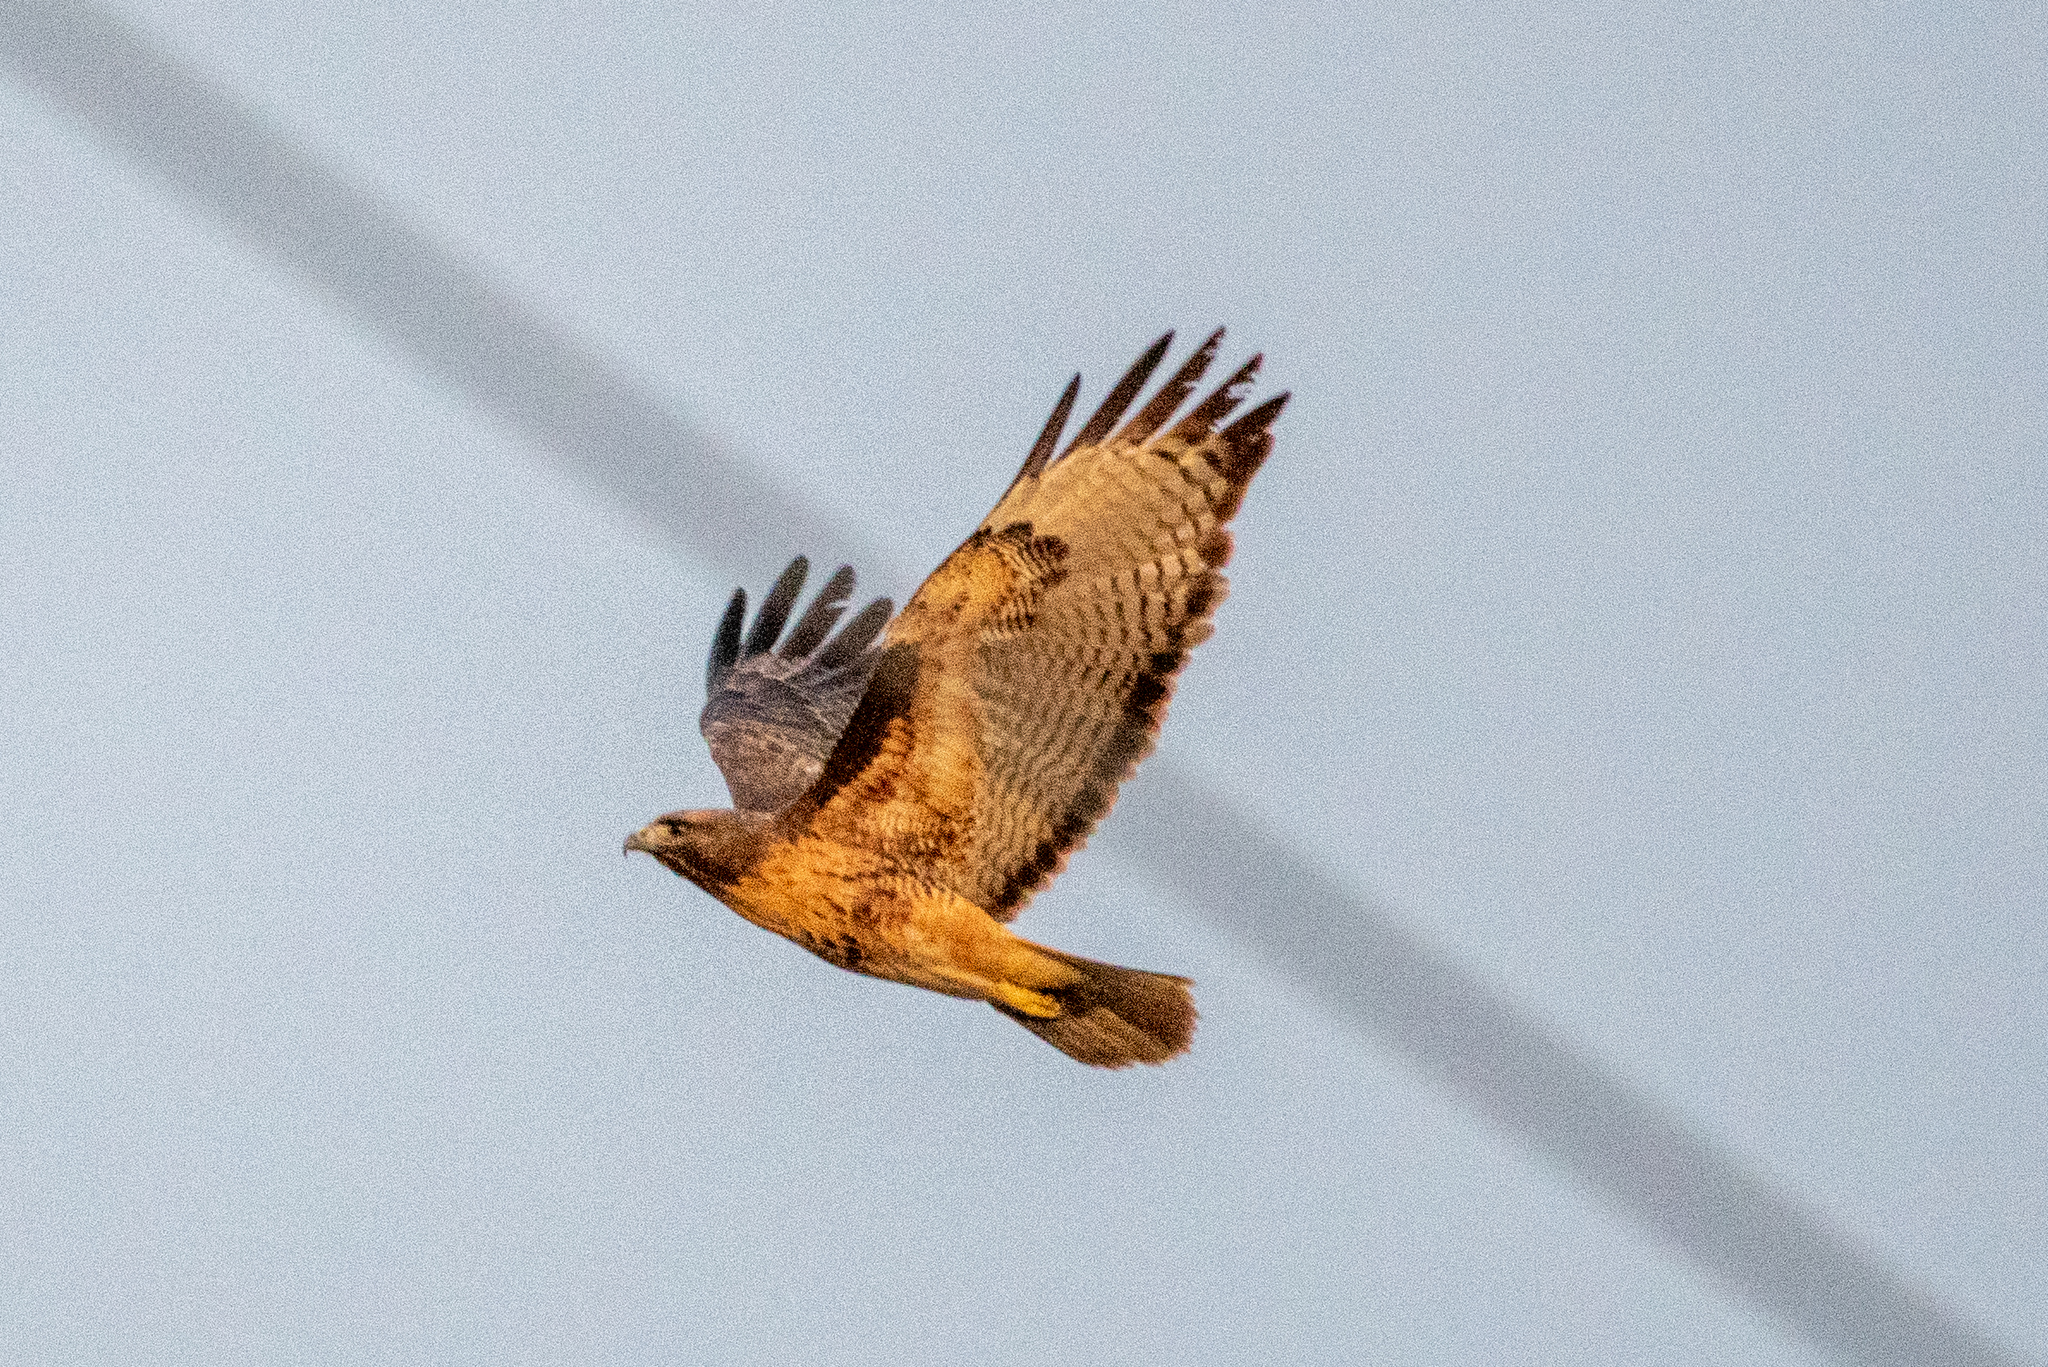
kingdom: Animalia
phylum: Chordata
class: Aves
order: Accipitriformes
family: Accipitridae
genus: Buteo
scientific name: Buteo jamaicensis
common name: Red-tailed hawk
